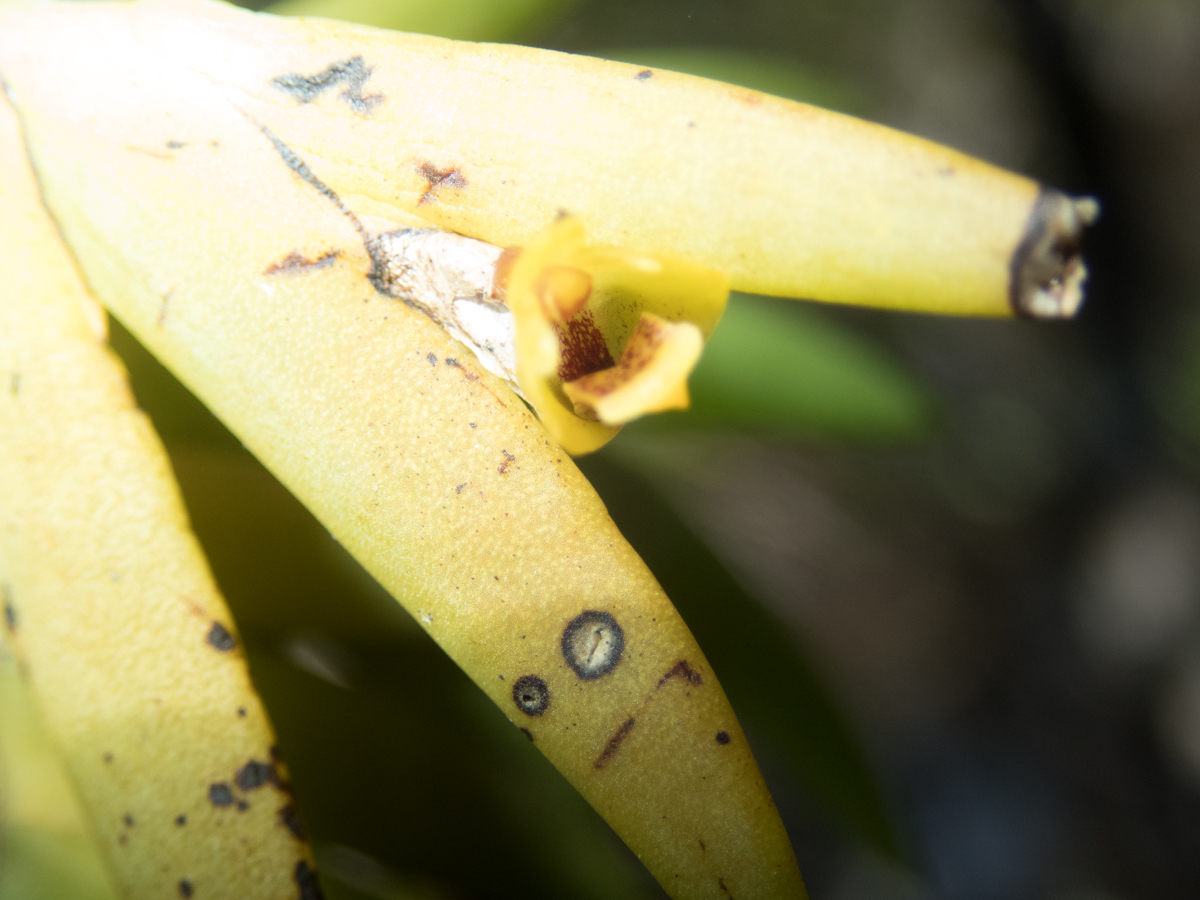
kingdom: Plantae
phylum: Tracheophyta
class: Liliopsida
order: Asparagales
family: Orchidaceae
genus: Oxystophyllum
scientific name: Oxystophyllum carnosum
